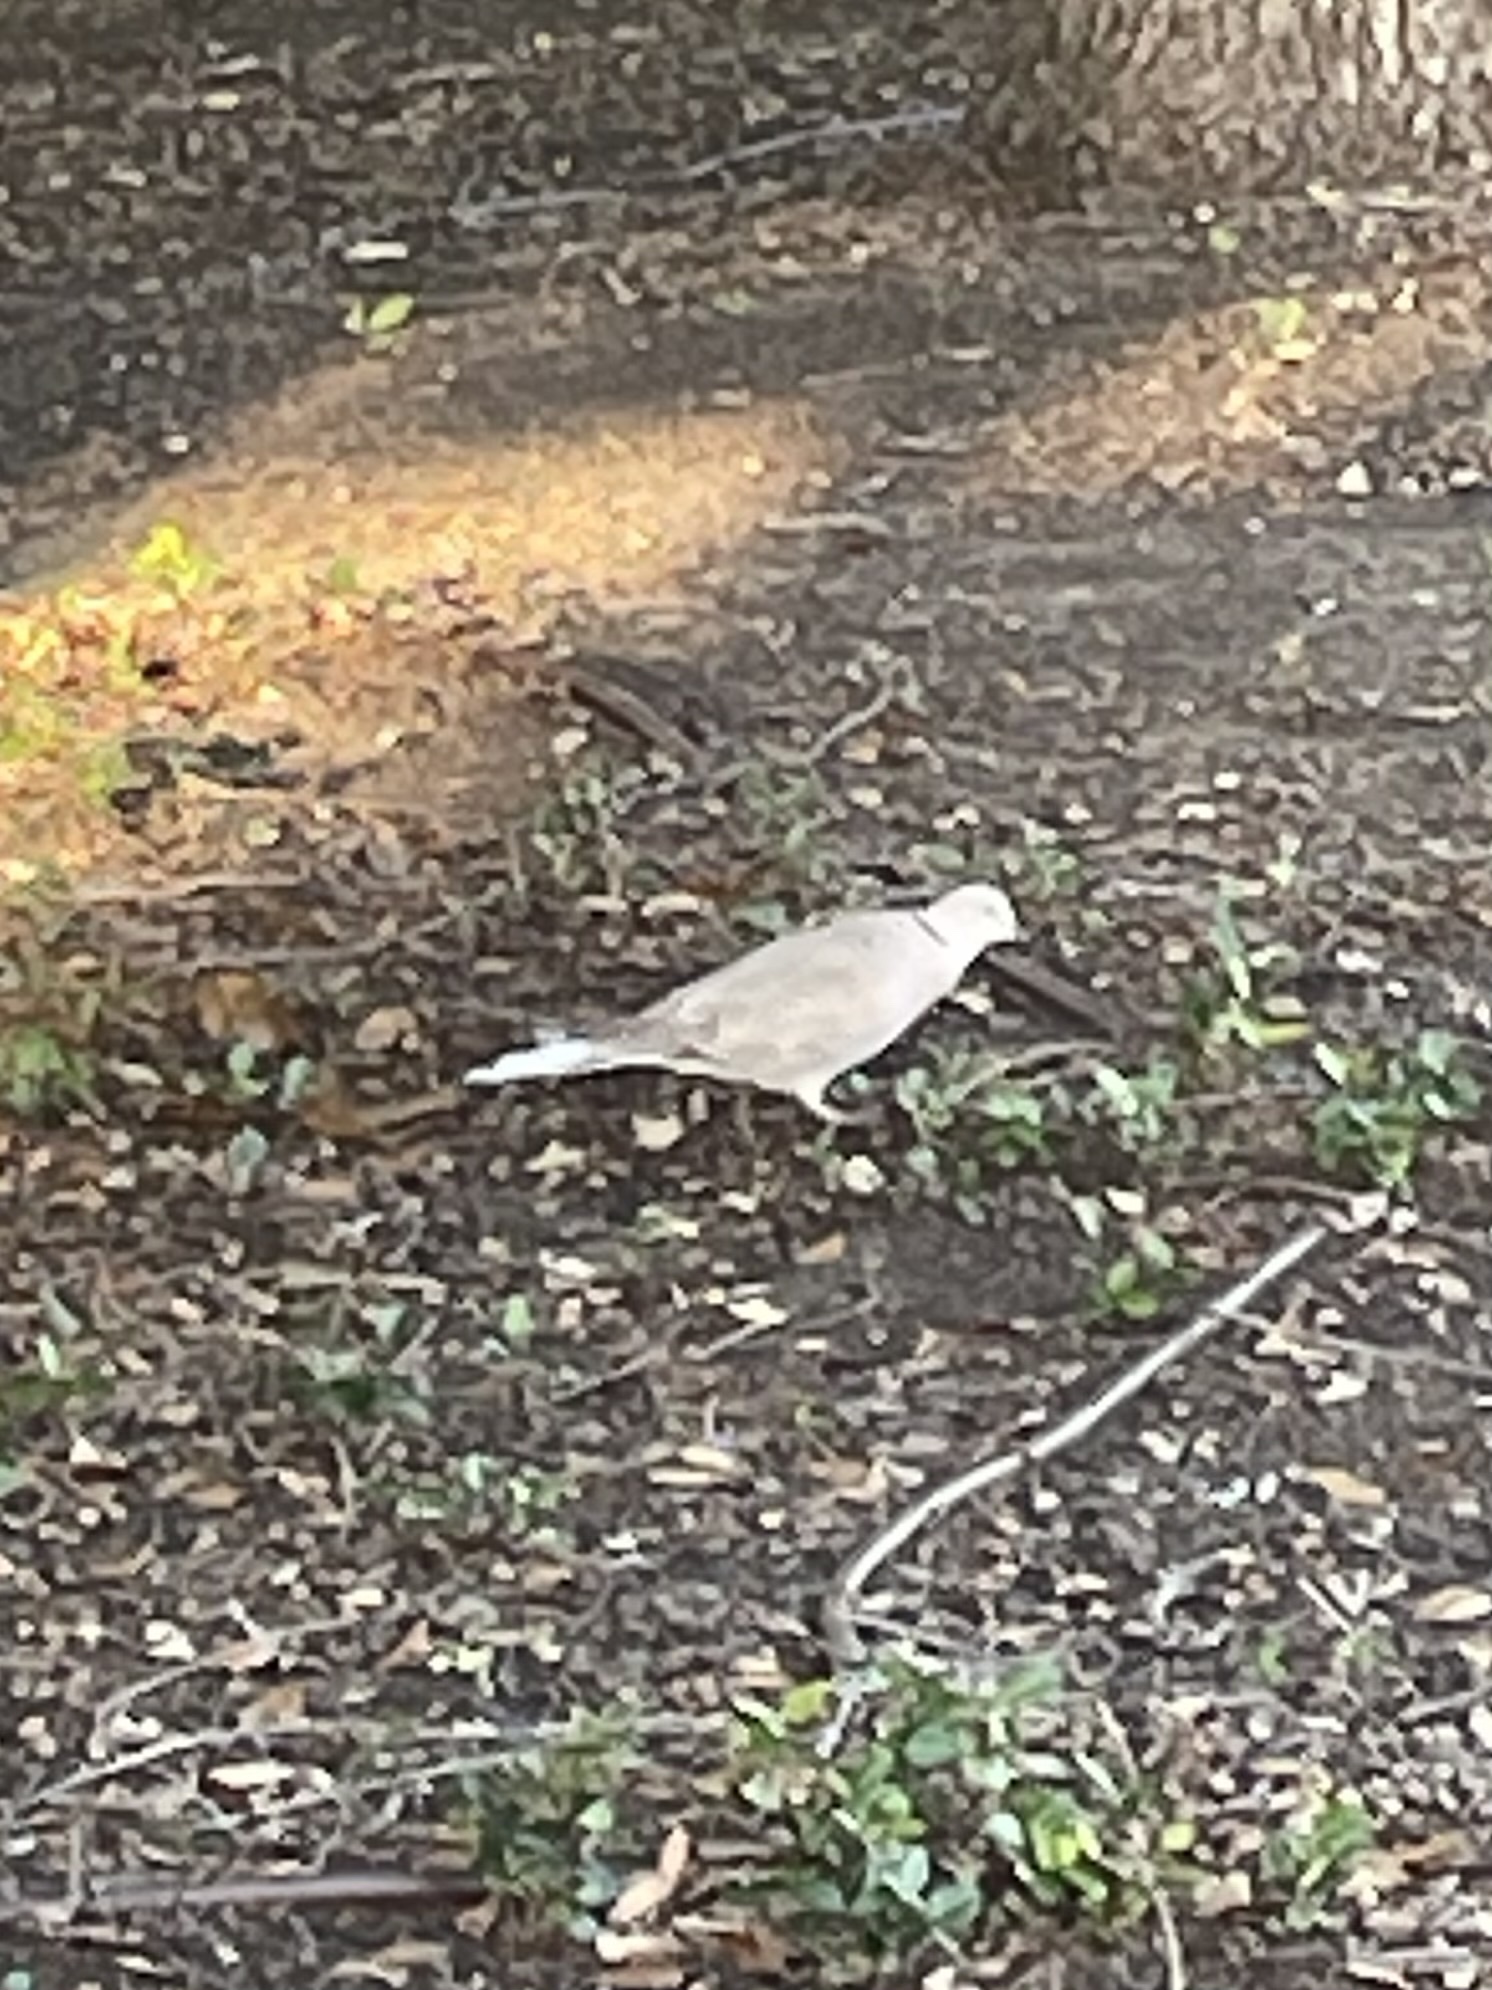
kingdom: Animalia
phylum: Chordata
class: Aves
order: Columbiformes
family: Columbidae
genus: Streptopelia
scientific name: Streptopelia decaocto
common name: Eurasian collared dove
